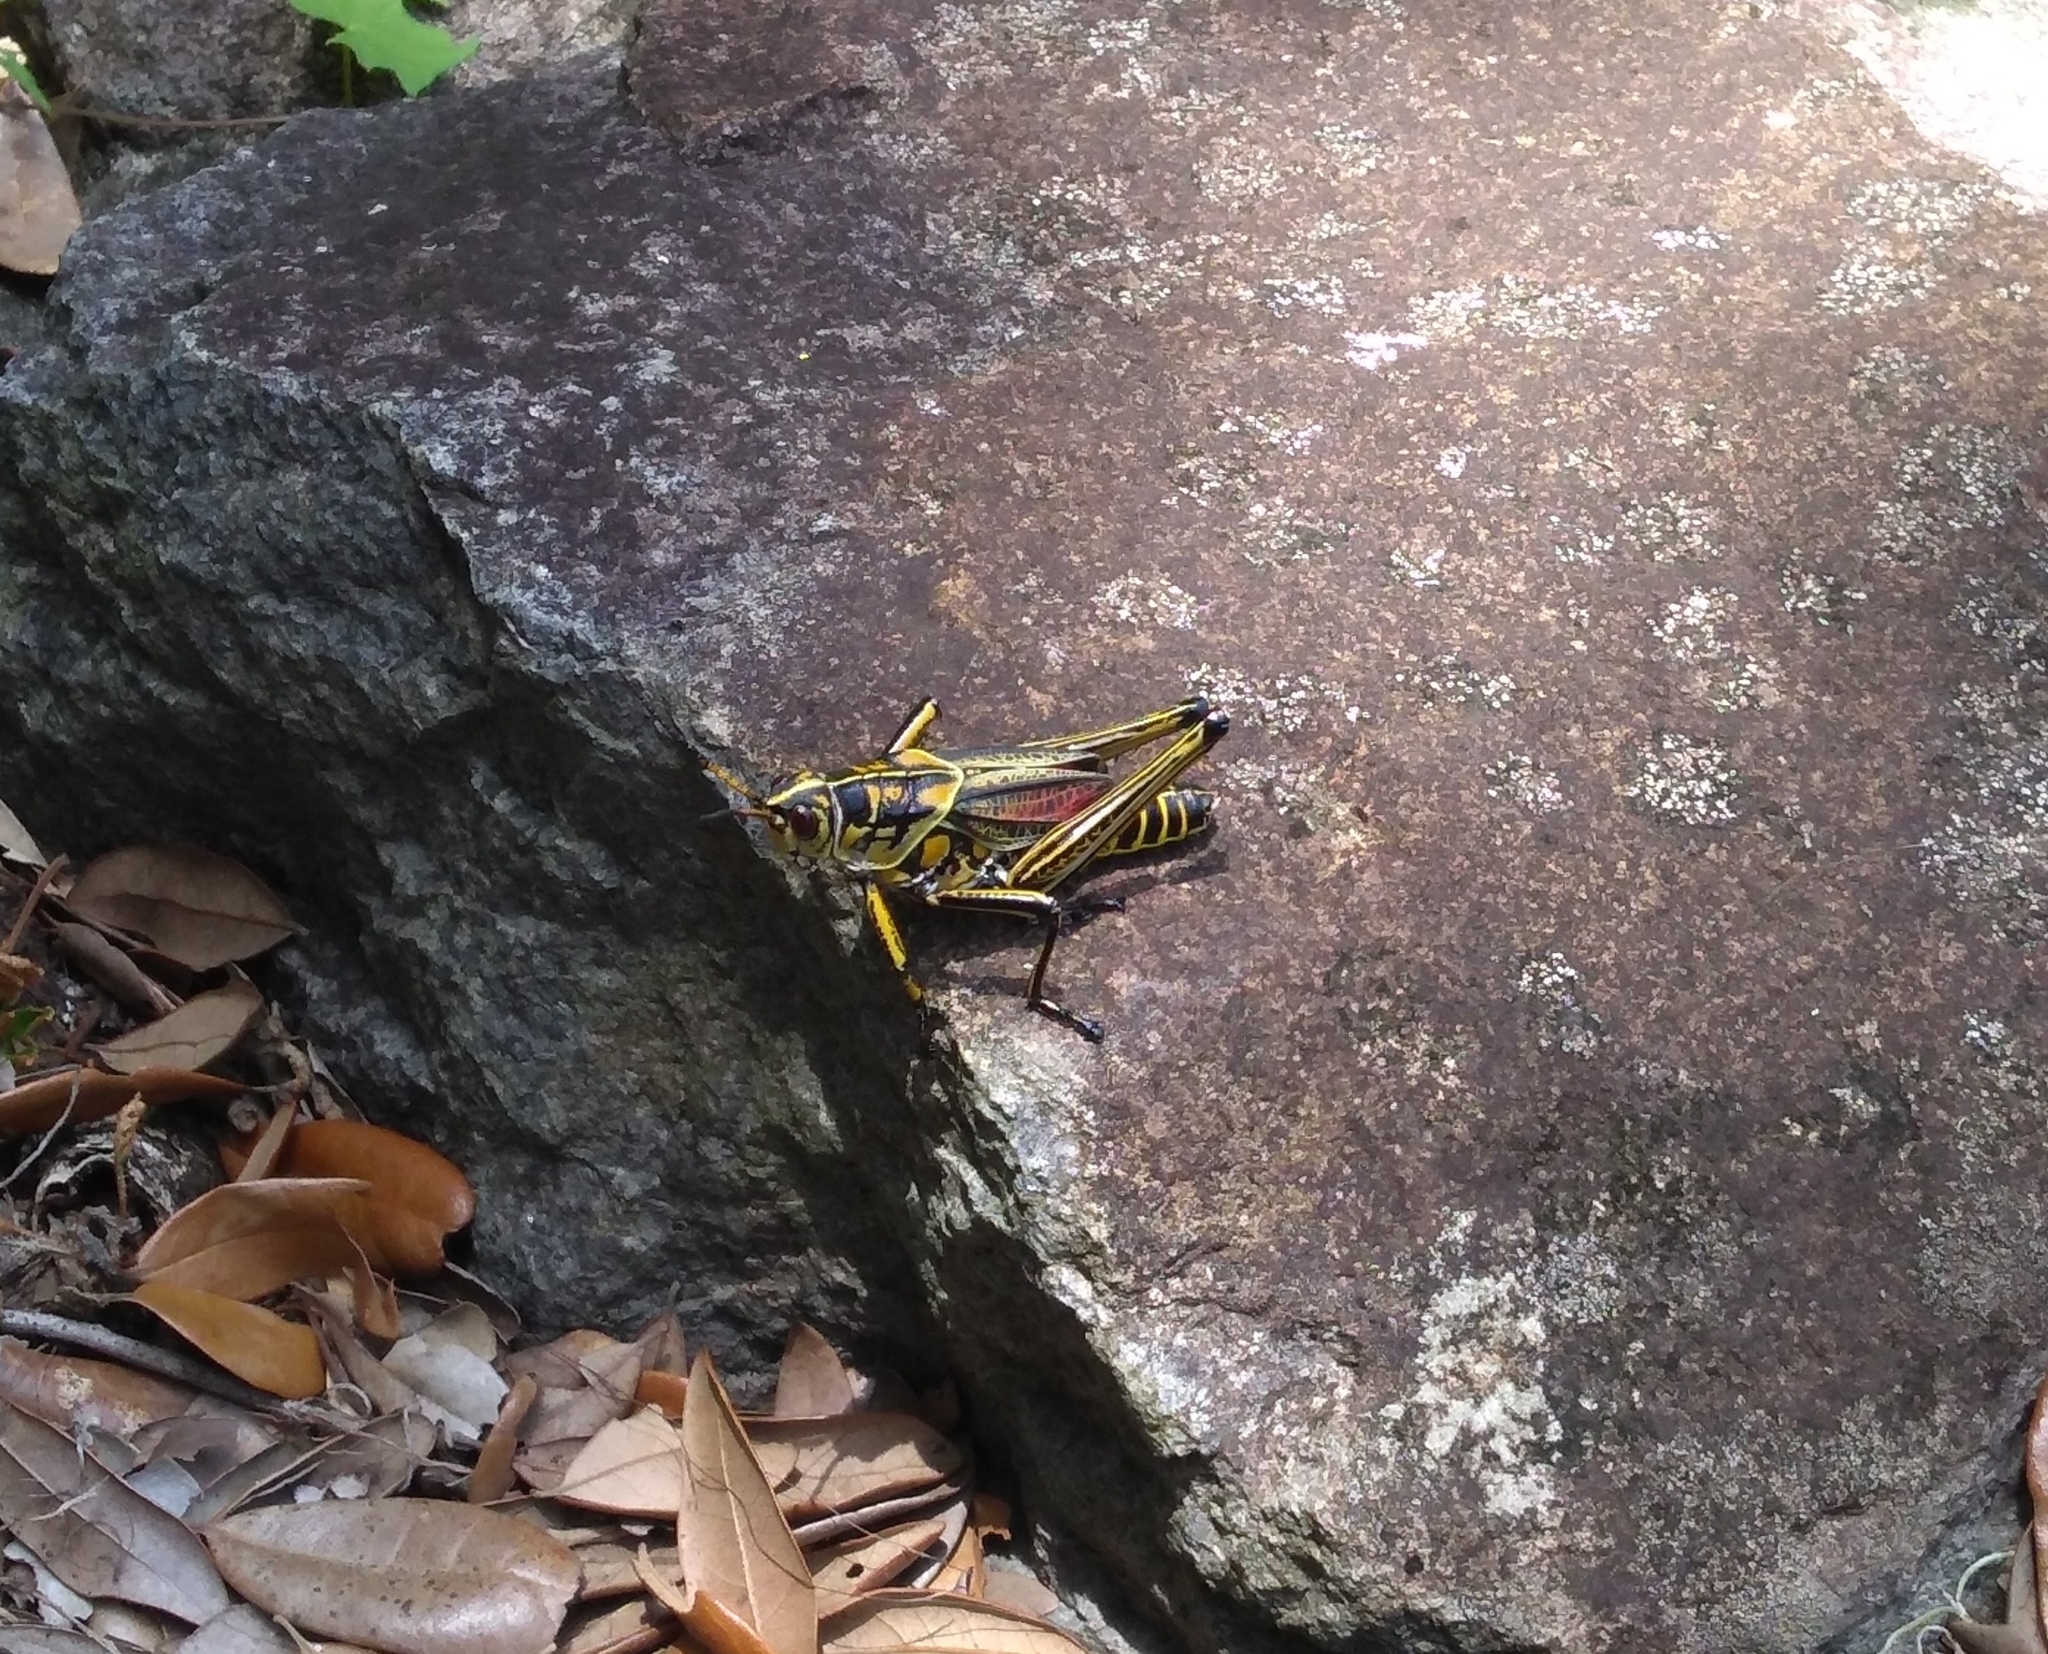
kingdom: Animalia
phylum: Arthropoda
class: Insecta
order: Orthoptera
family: Romaleidae
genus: Romalea
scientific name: Romalea microptera
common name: Eastern lubber grasshopper
